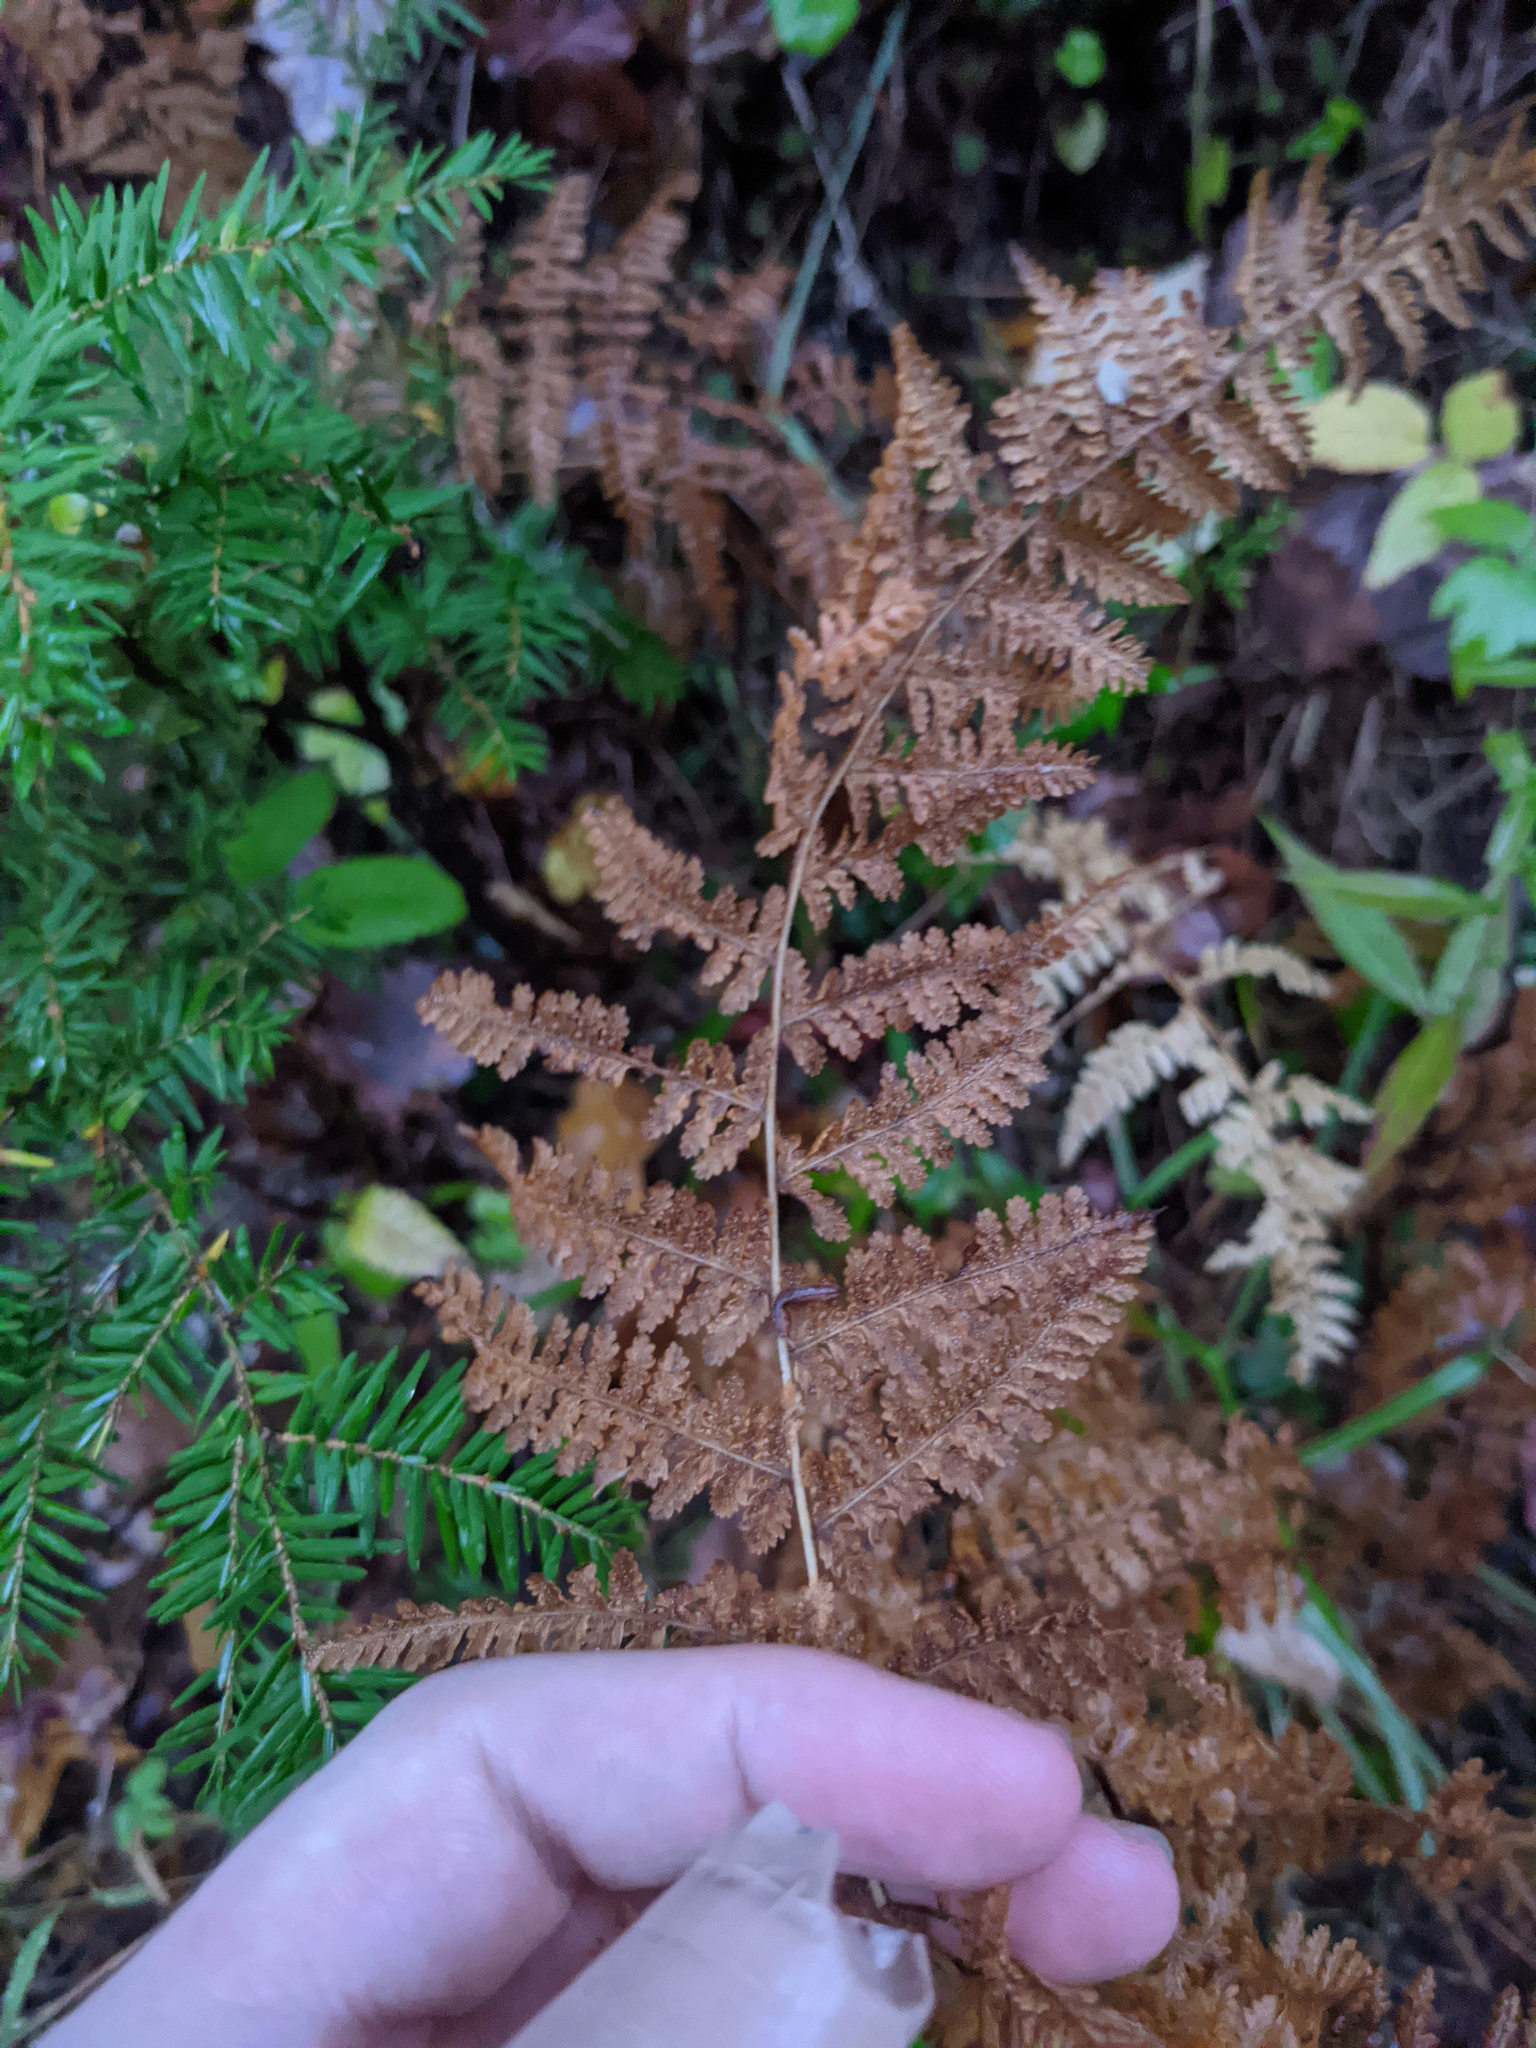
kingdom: Plantae
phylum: Tracheophyta
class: Polypodiopsida
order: Polypodiales
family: Dennstaedtiaceae
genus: Sitobolium
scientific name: Sitobolium punctilobum
